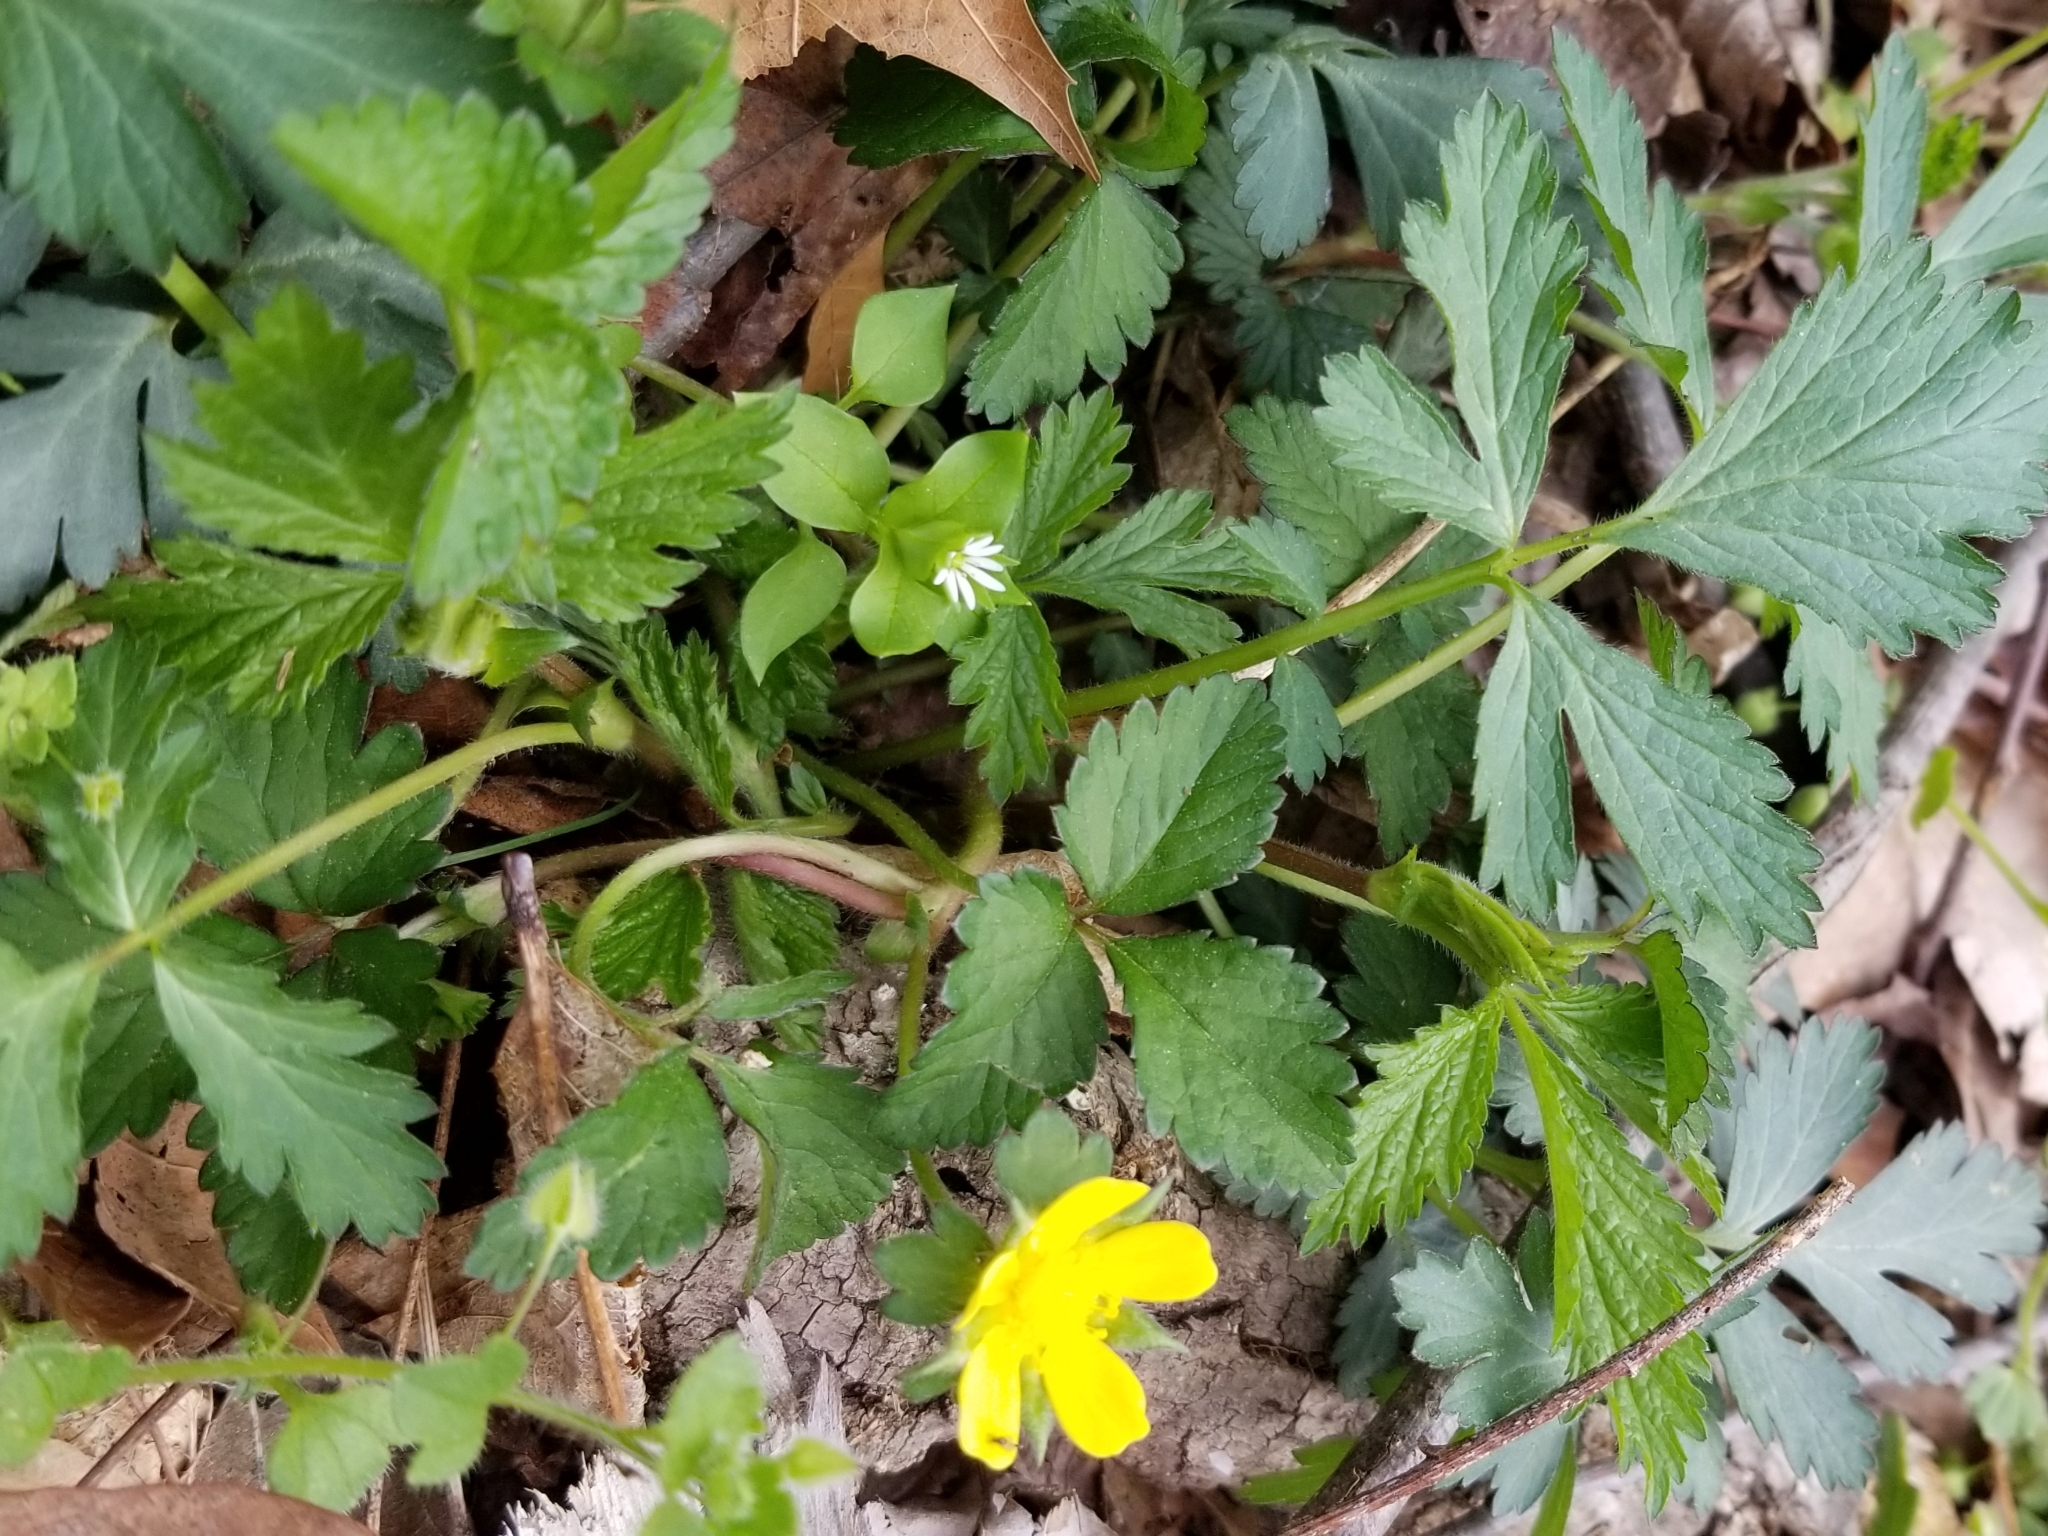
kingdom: Plantae
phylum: Tracheophyta
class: Magnoliopsida
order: Rosales
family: Rosaceae
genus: Potentilla
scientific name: Potentilla indica
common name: Yellow-flowered strawberry
